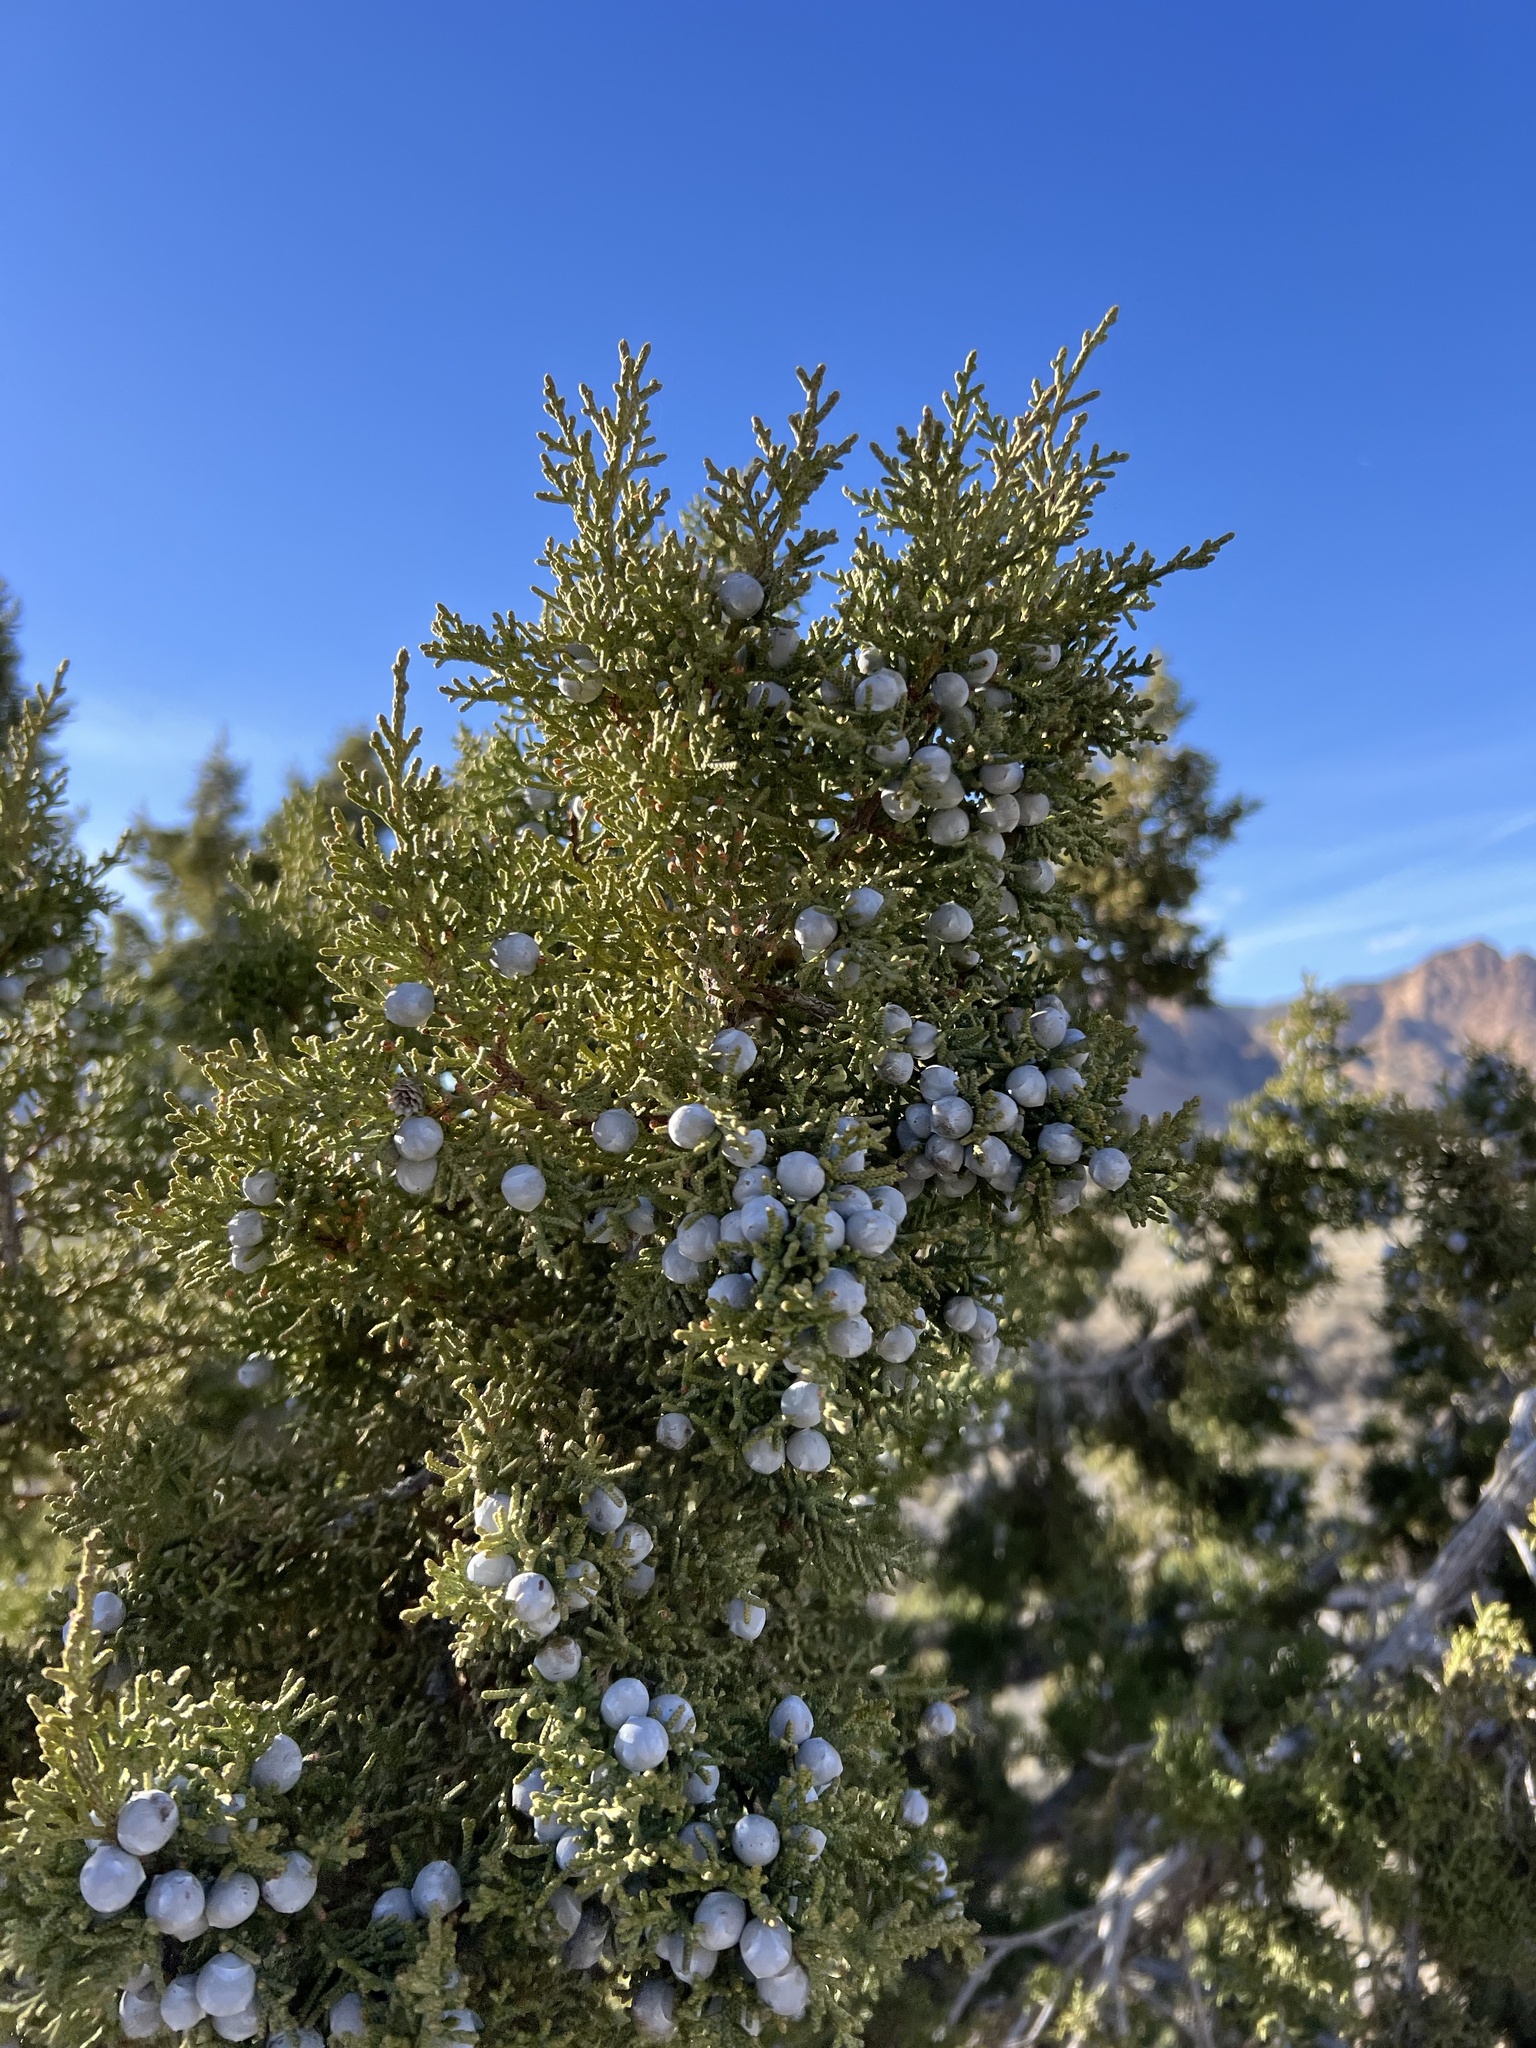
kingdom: Plantae
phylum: Tracheophyta
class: Pinopsida
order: Pinales
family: Cupressaceae
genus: Juniperus
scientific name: Juniperus osteosperma
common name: Utah juniper
